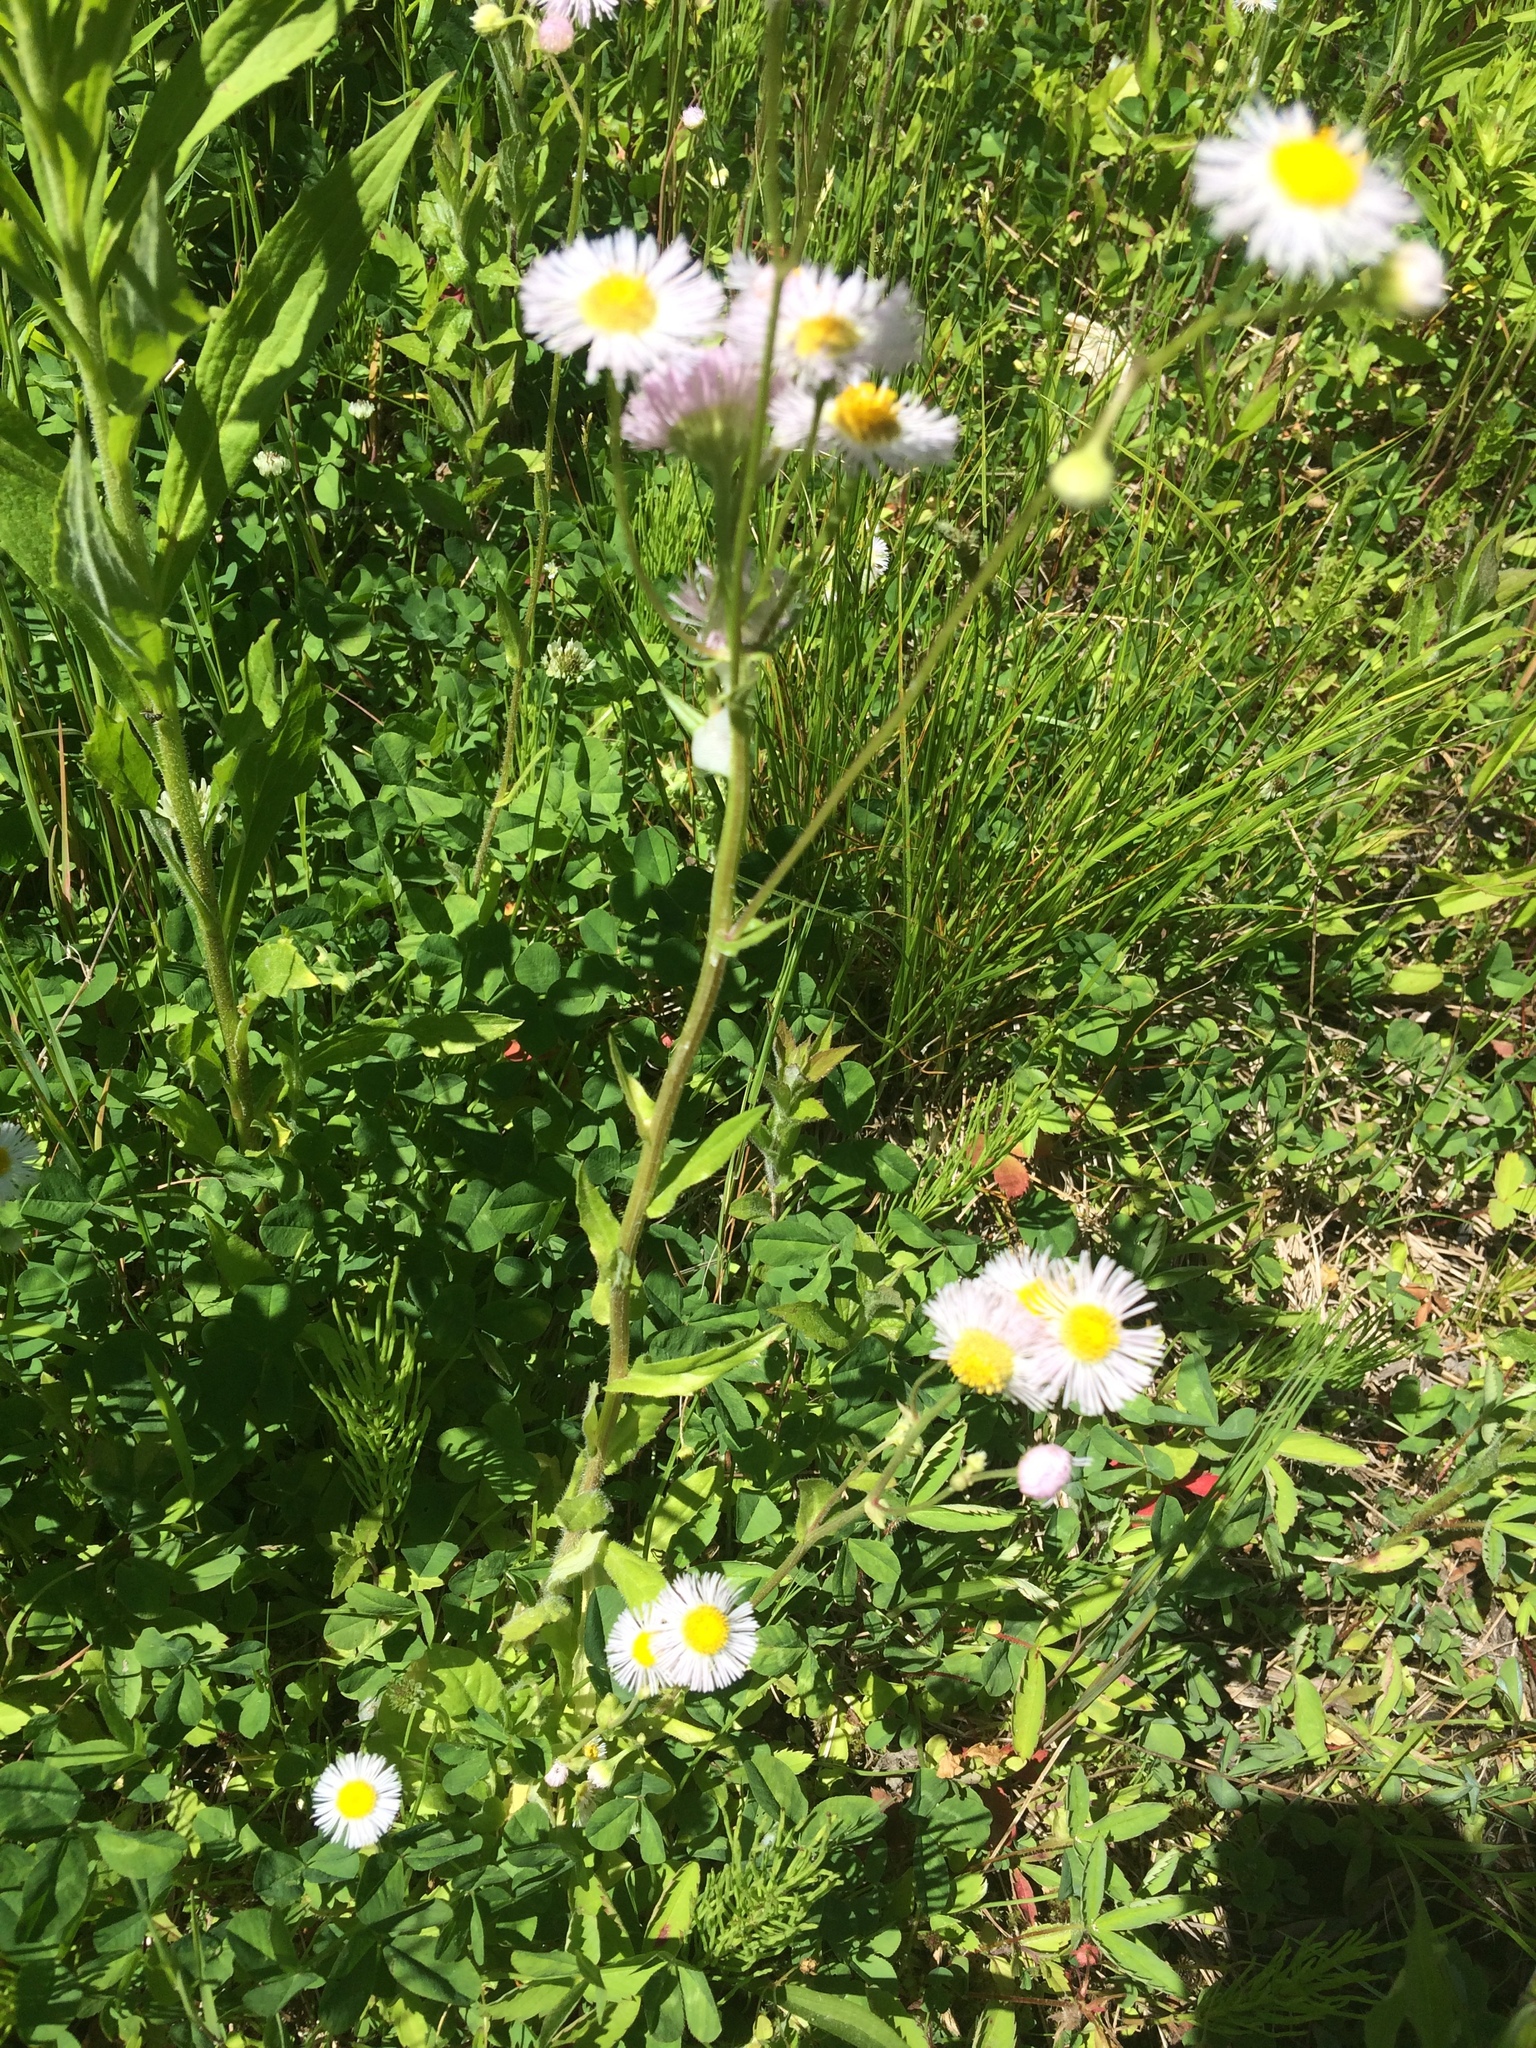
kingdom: Plantae
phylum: Tracheophyta
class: Magnoliopsida
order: Asterales
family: Asteraceae
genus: Erigeron
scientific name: Erigeron philadelphicus
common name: Robin's-plantain
